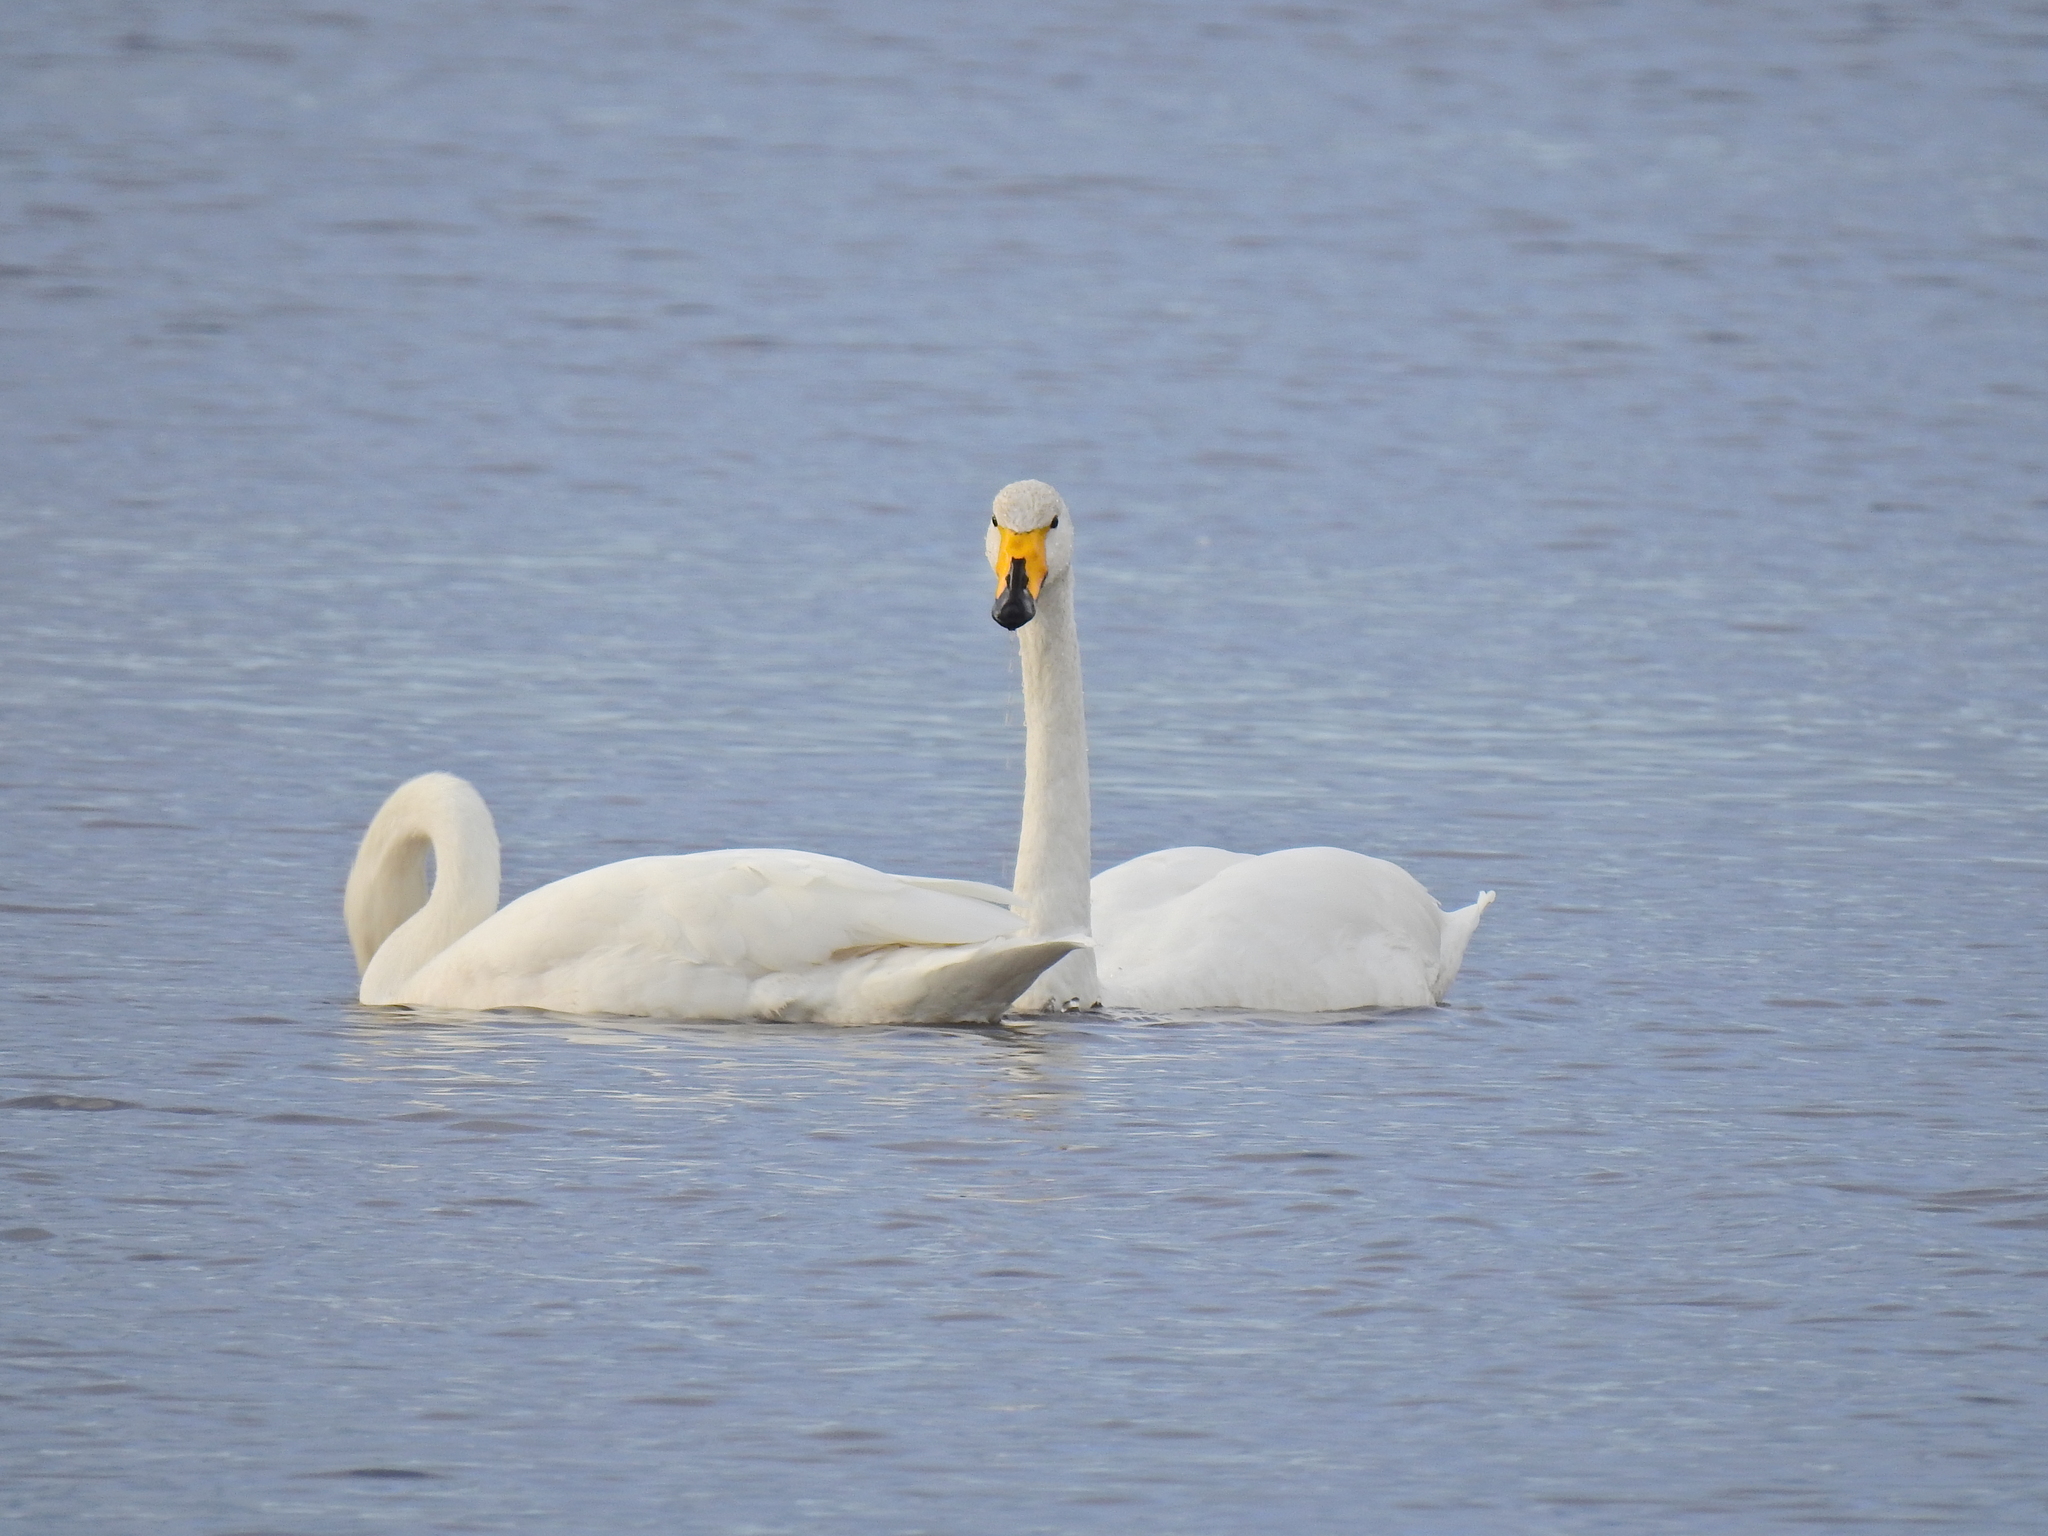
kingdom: Animalia
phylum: Chordata
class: Aves
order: Anseriformes
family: Anatidae
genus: Cygnus
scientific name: Cygnus cygnus
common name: Whooper swan
